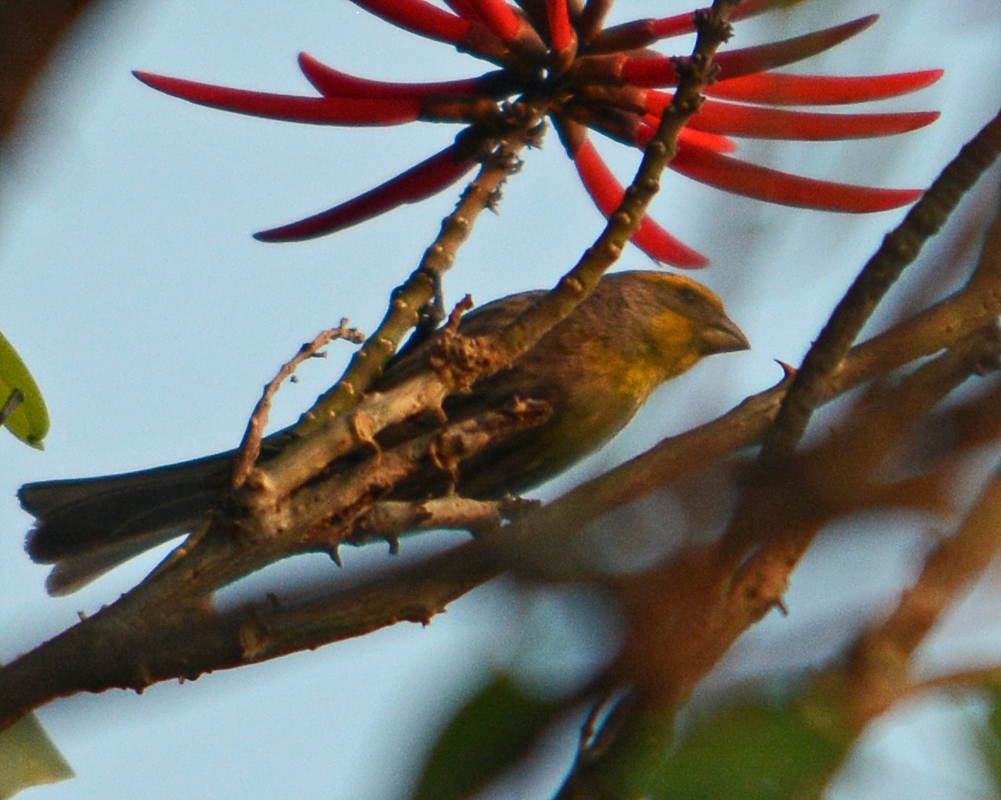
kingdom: Animalia
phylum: Chordata
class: Aves
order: Passeriformes
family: Fringillidae
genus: Haemorhous
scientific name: Haemorhous mexicanus
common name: House finch
